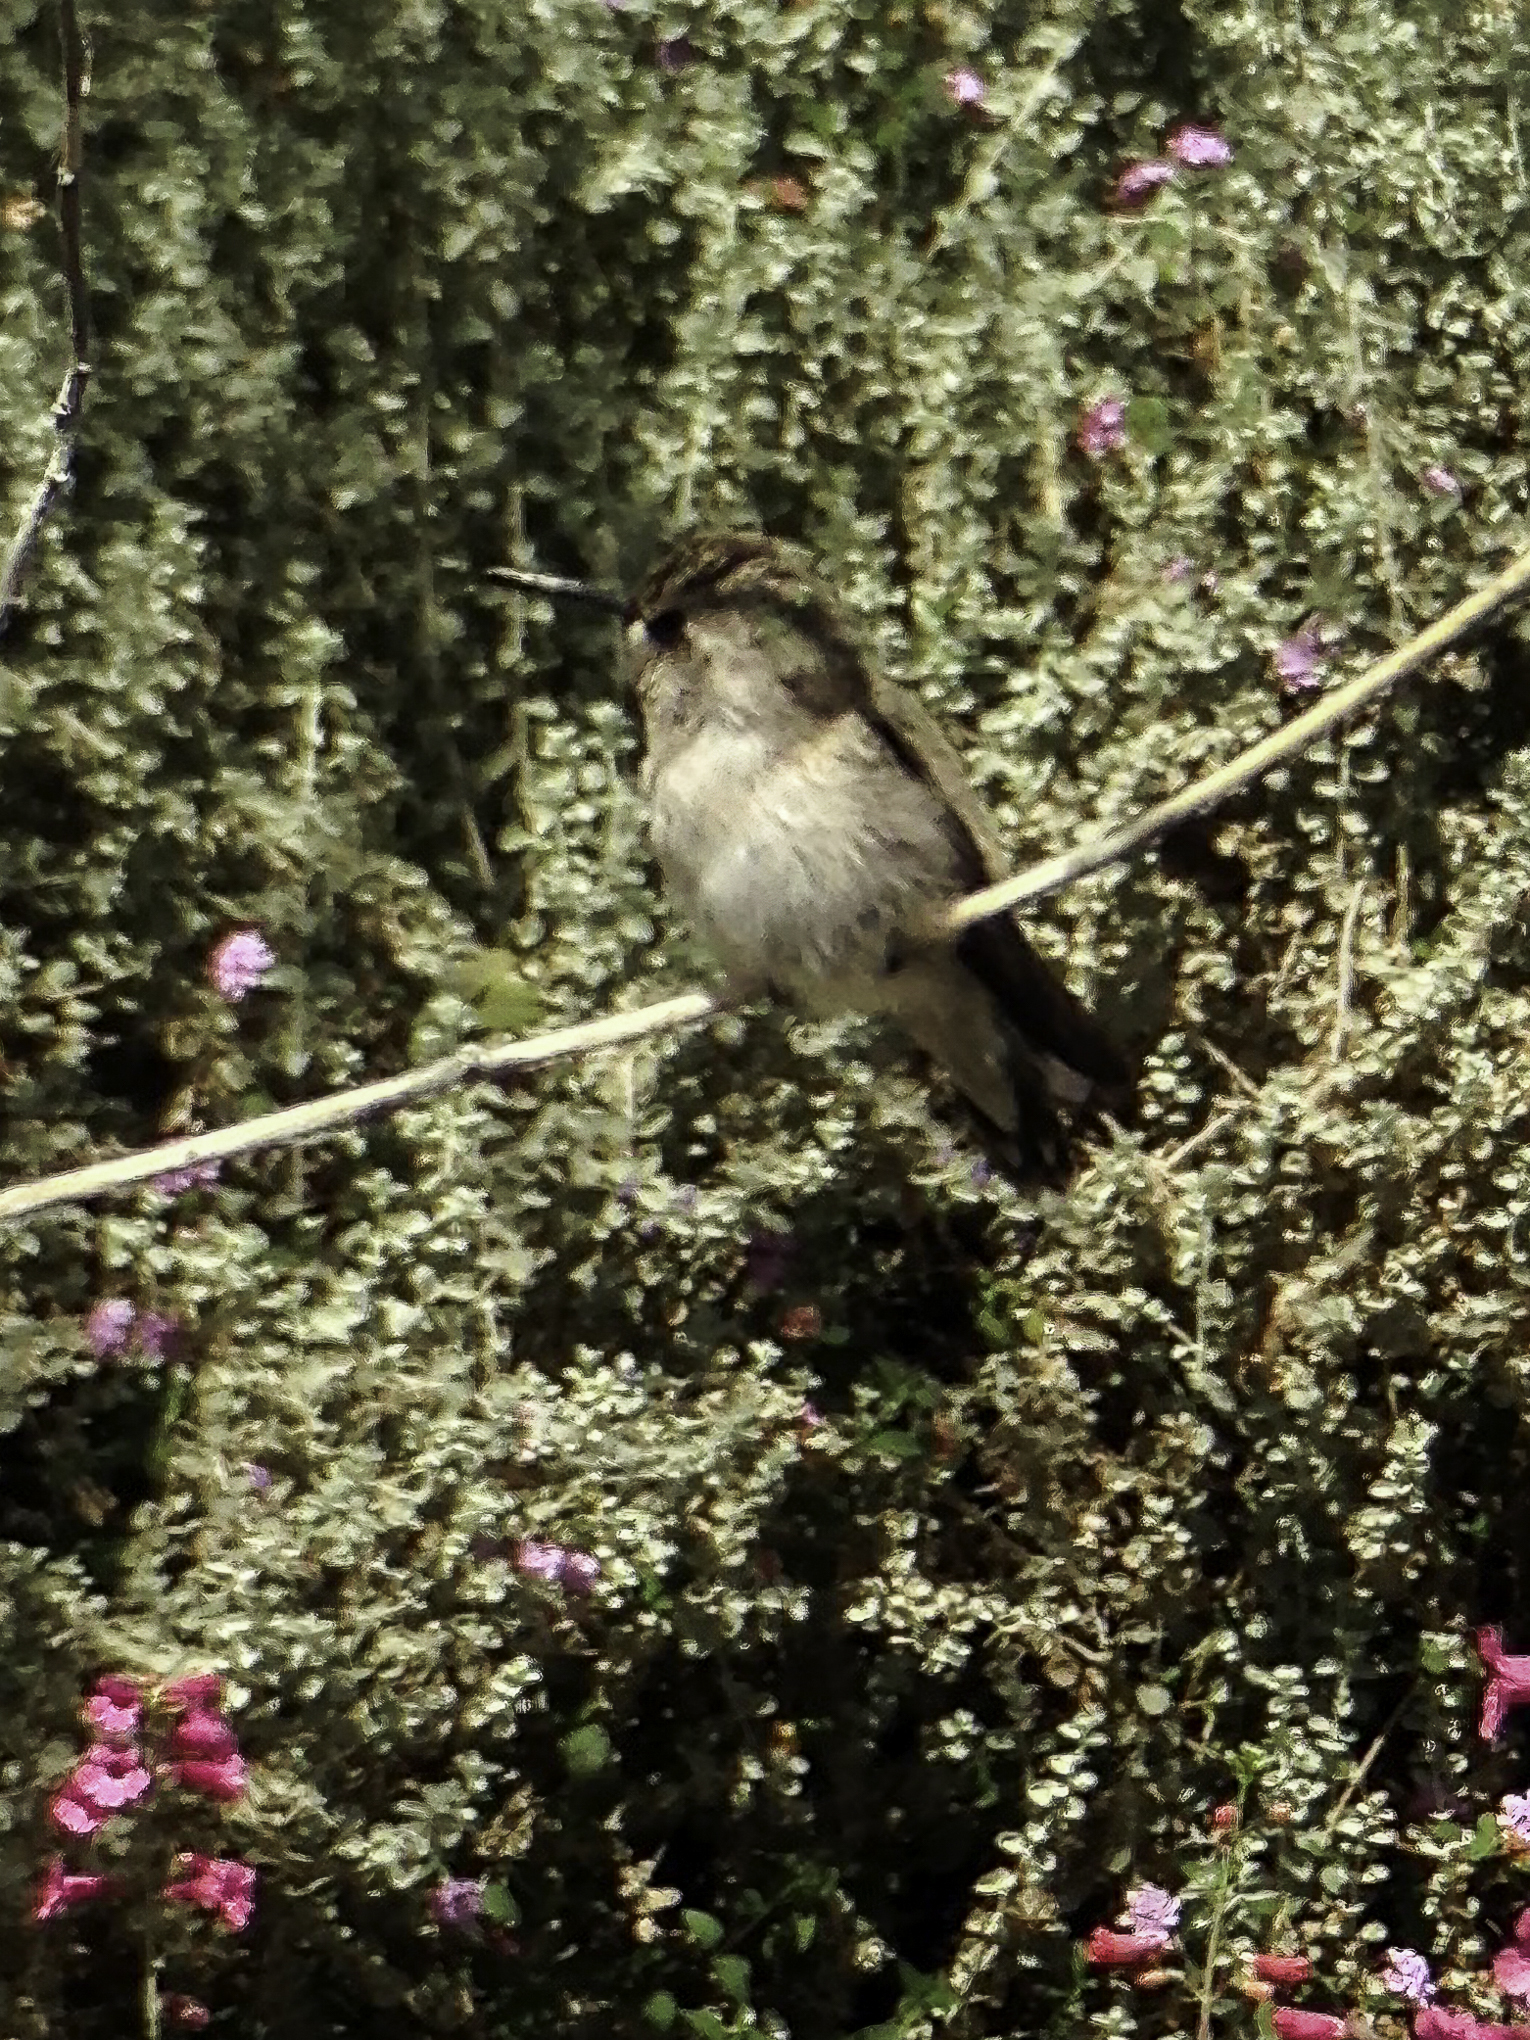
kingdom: Animalia
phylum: Chordata
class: Aves
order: Apodiformes
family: Trochilidae
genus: Calypte
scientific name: Calypte costae
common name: Costa's hummingbird
